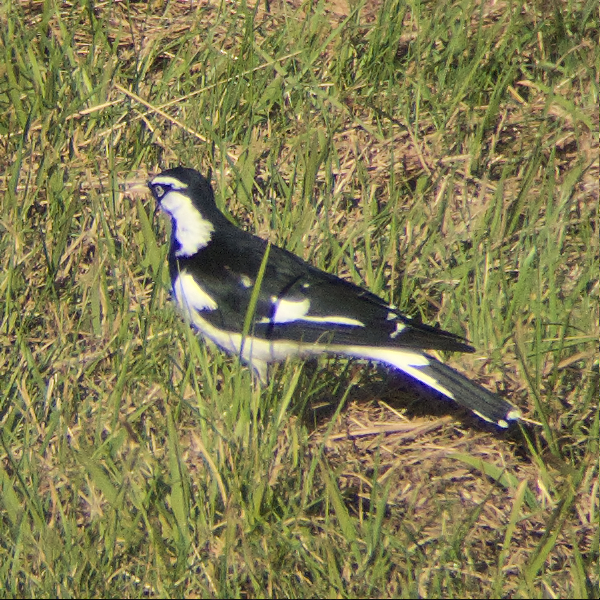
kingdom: Animalia
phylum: Chordata
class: Aves
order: Passeriformes
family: Monarchidae
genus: Grallina
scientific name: Grallina cyanoleuca
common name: Magpie-lark
